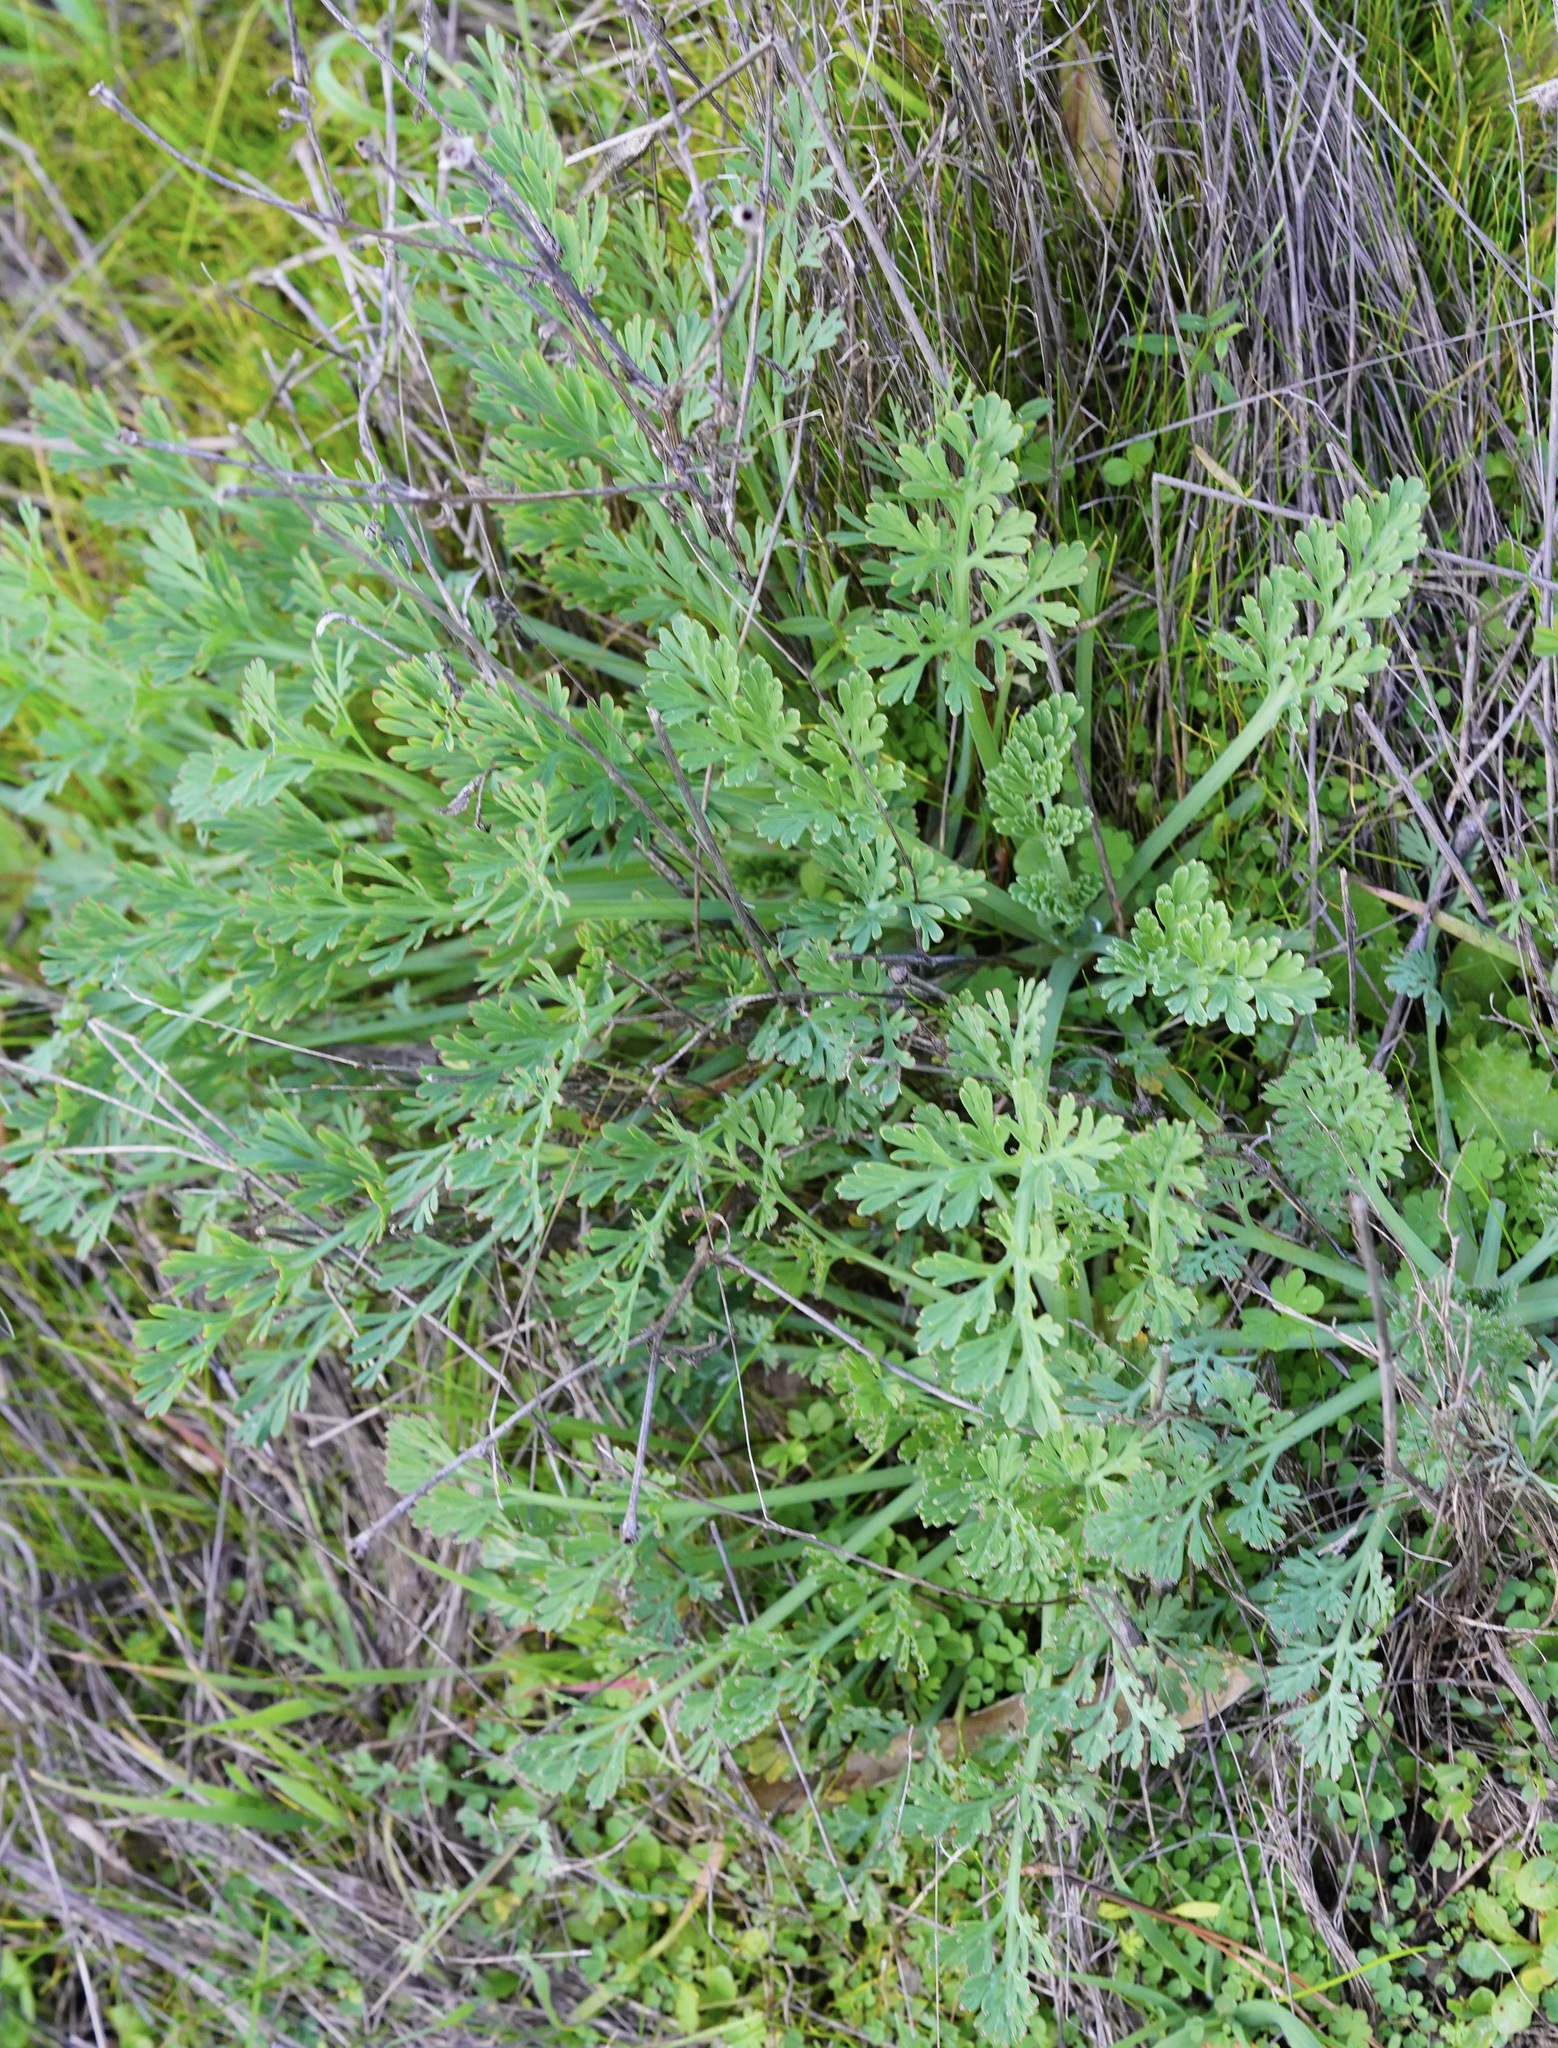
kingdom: Plantae
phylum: Tracheophyta
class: Magnoliopsida
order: Ranunculales
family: Papaveraceae
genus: Eschscholzia
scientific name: Eschscholzia californica
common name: California poppy
